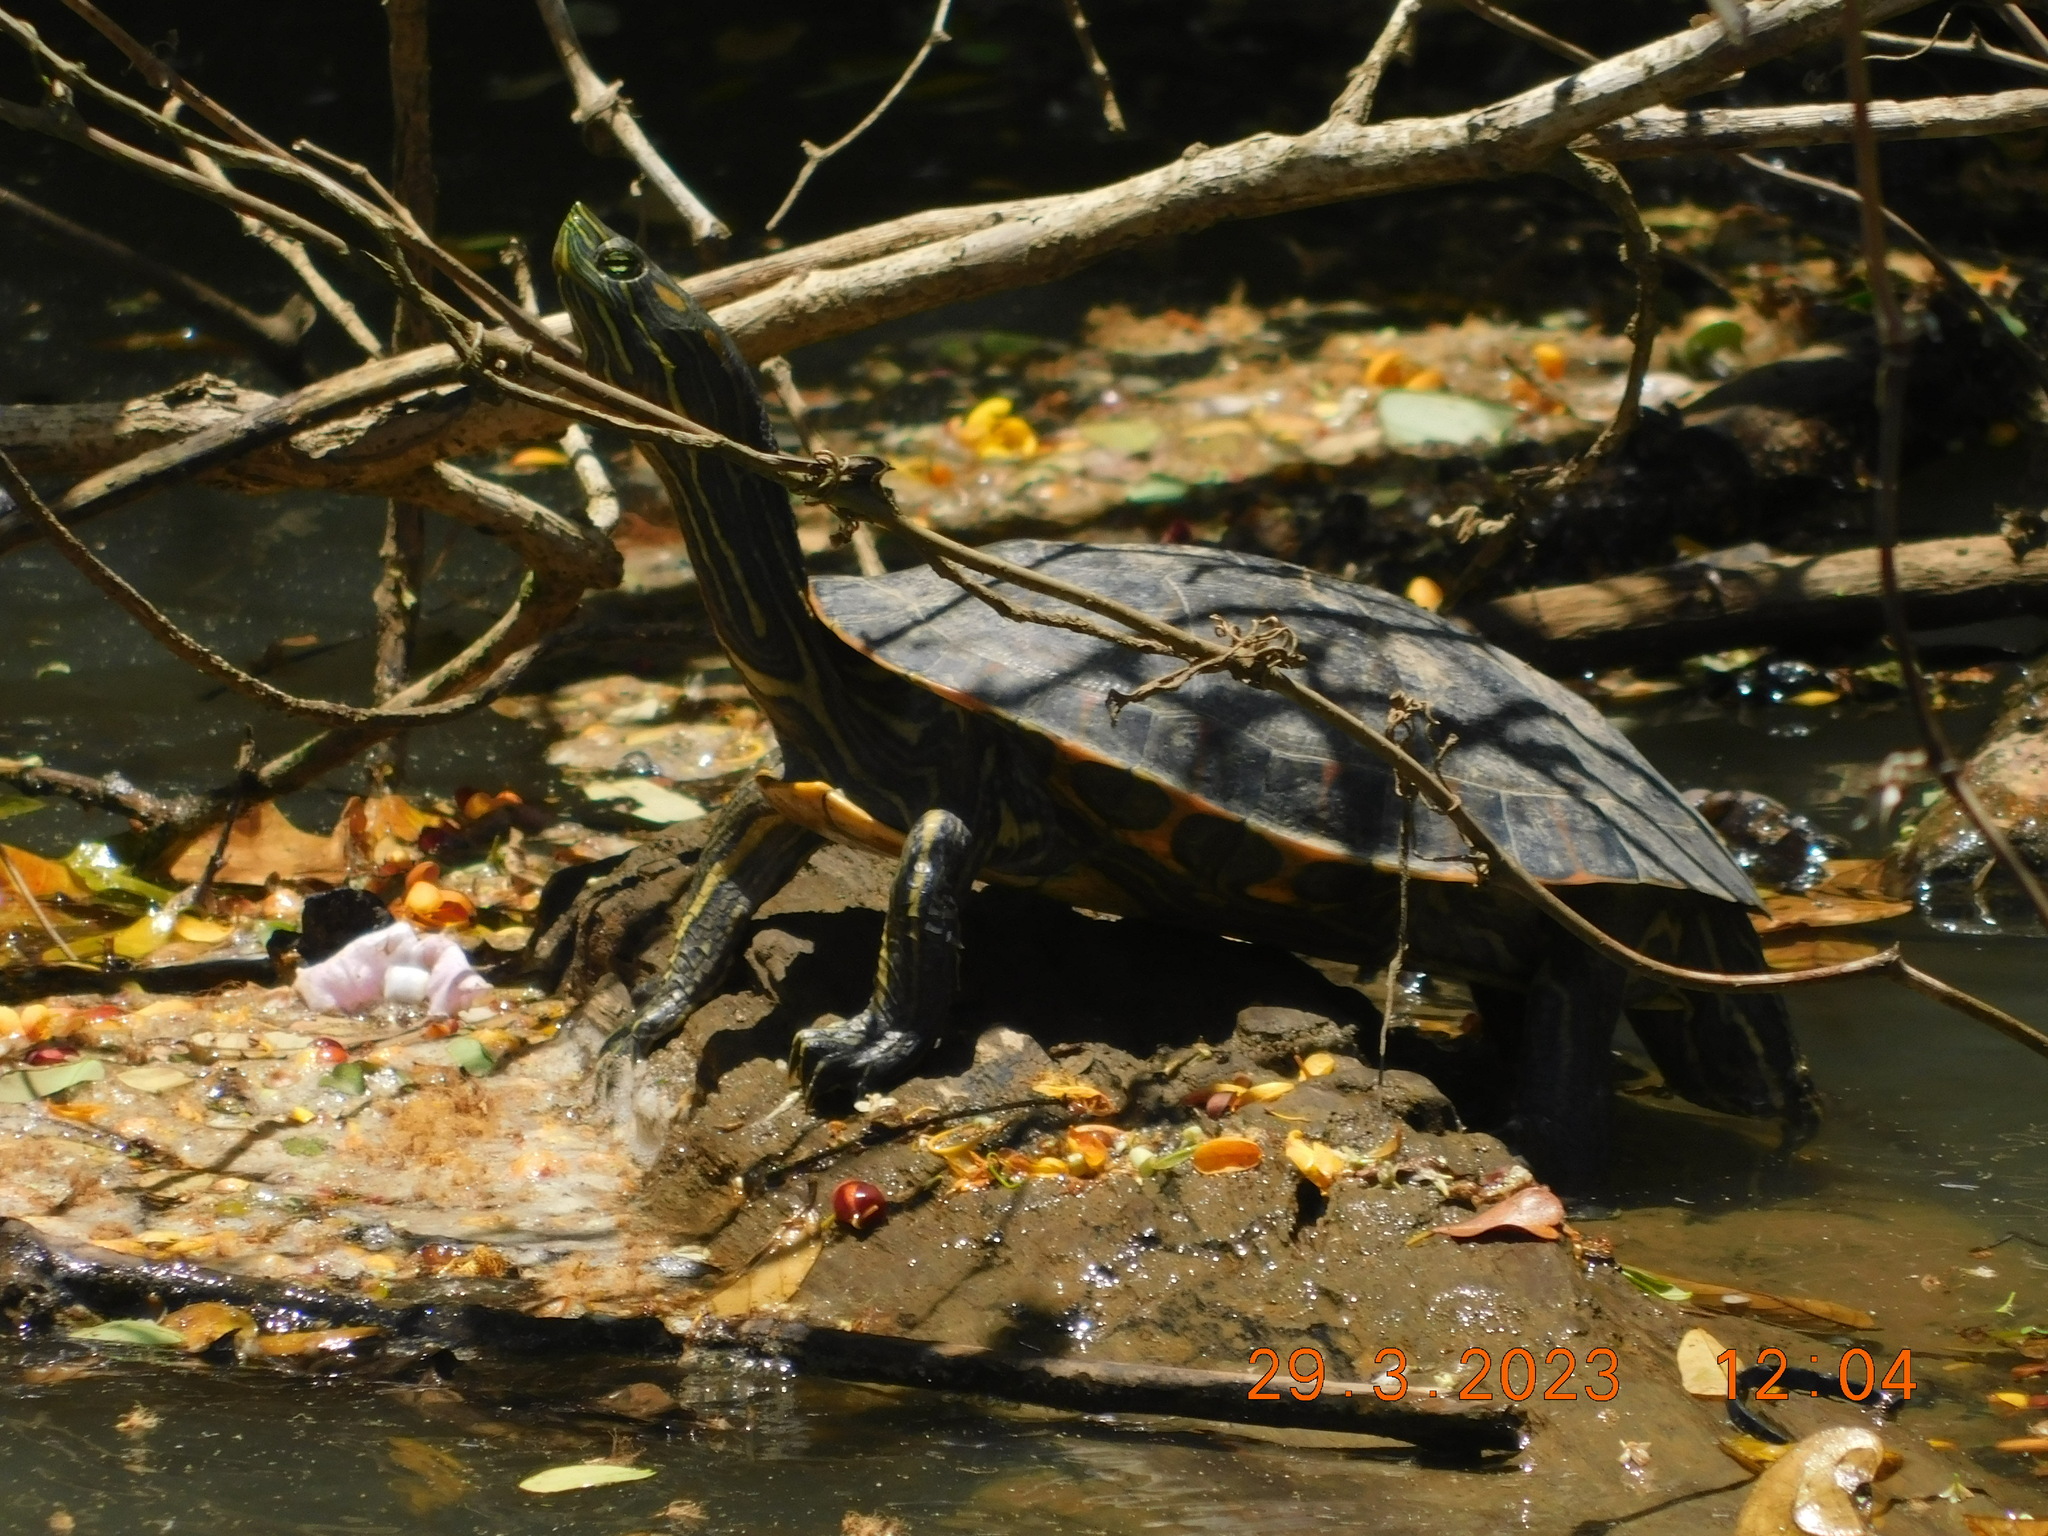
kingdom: Animalia
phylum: Chordata
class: Testudines
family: Emydidae
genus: Trachemys
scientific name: Trachemys grayi
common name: Gray's slider
